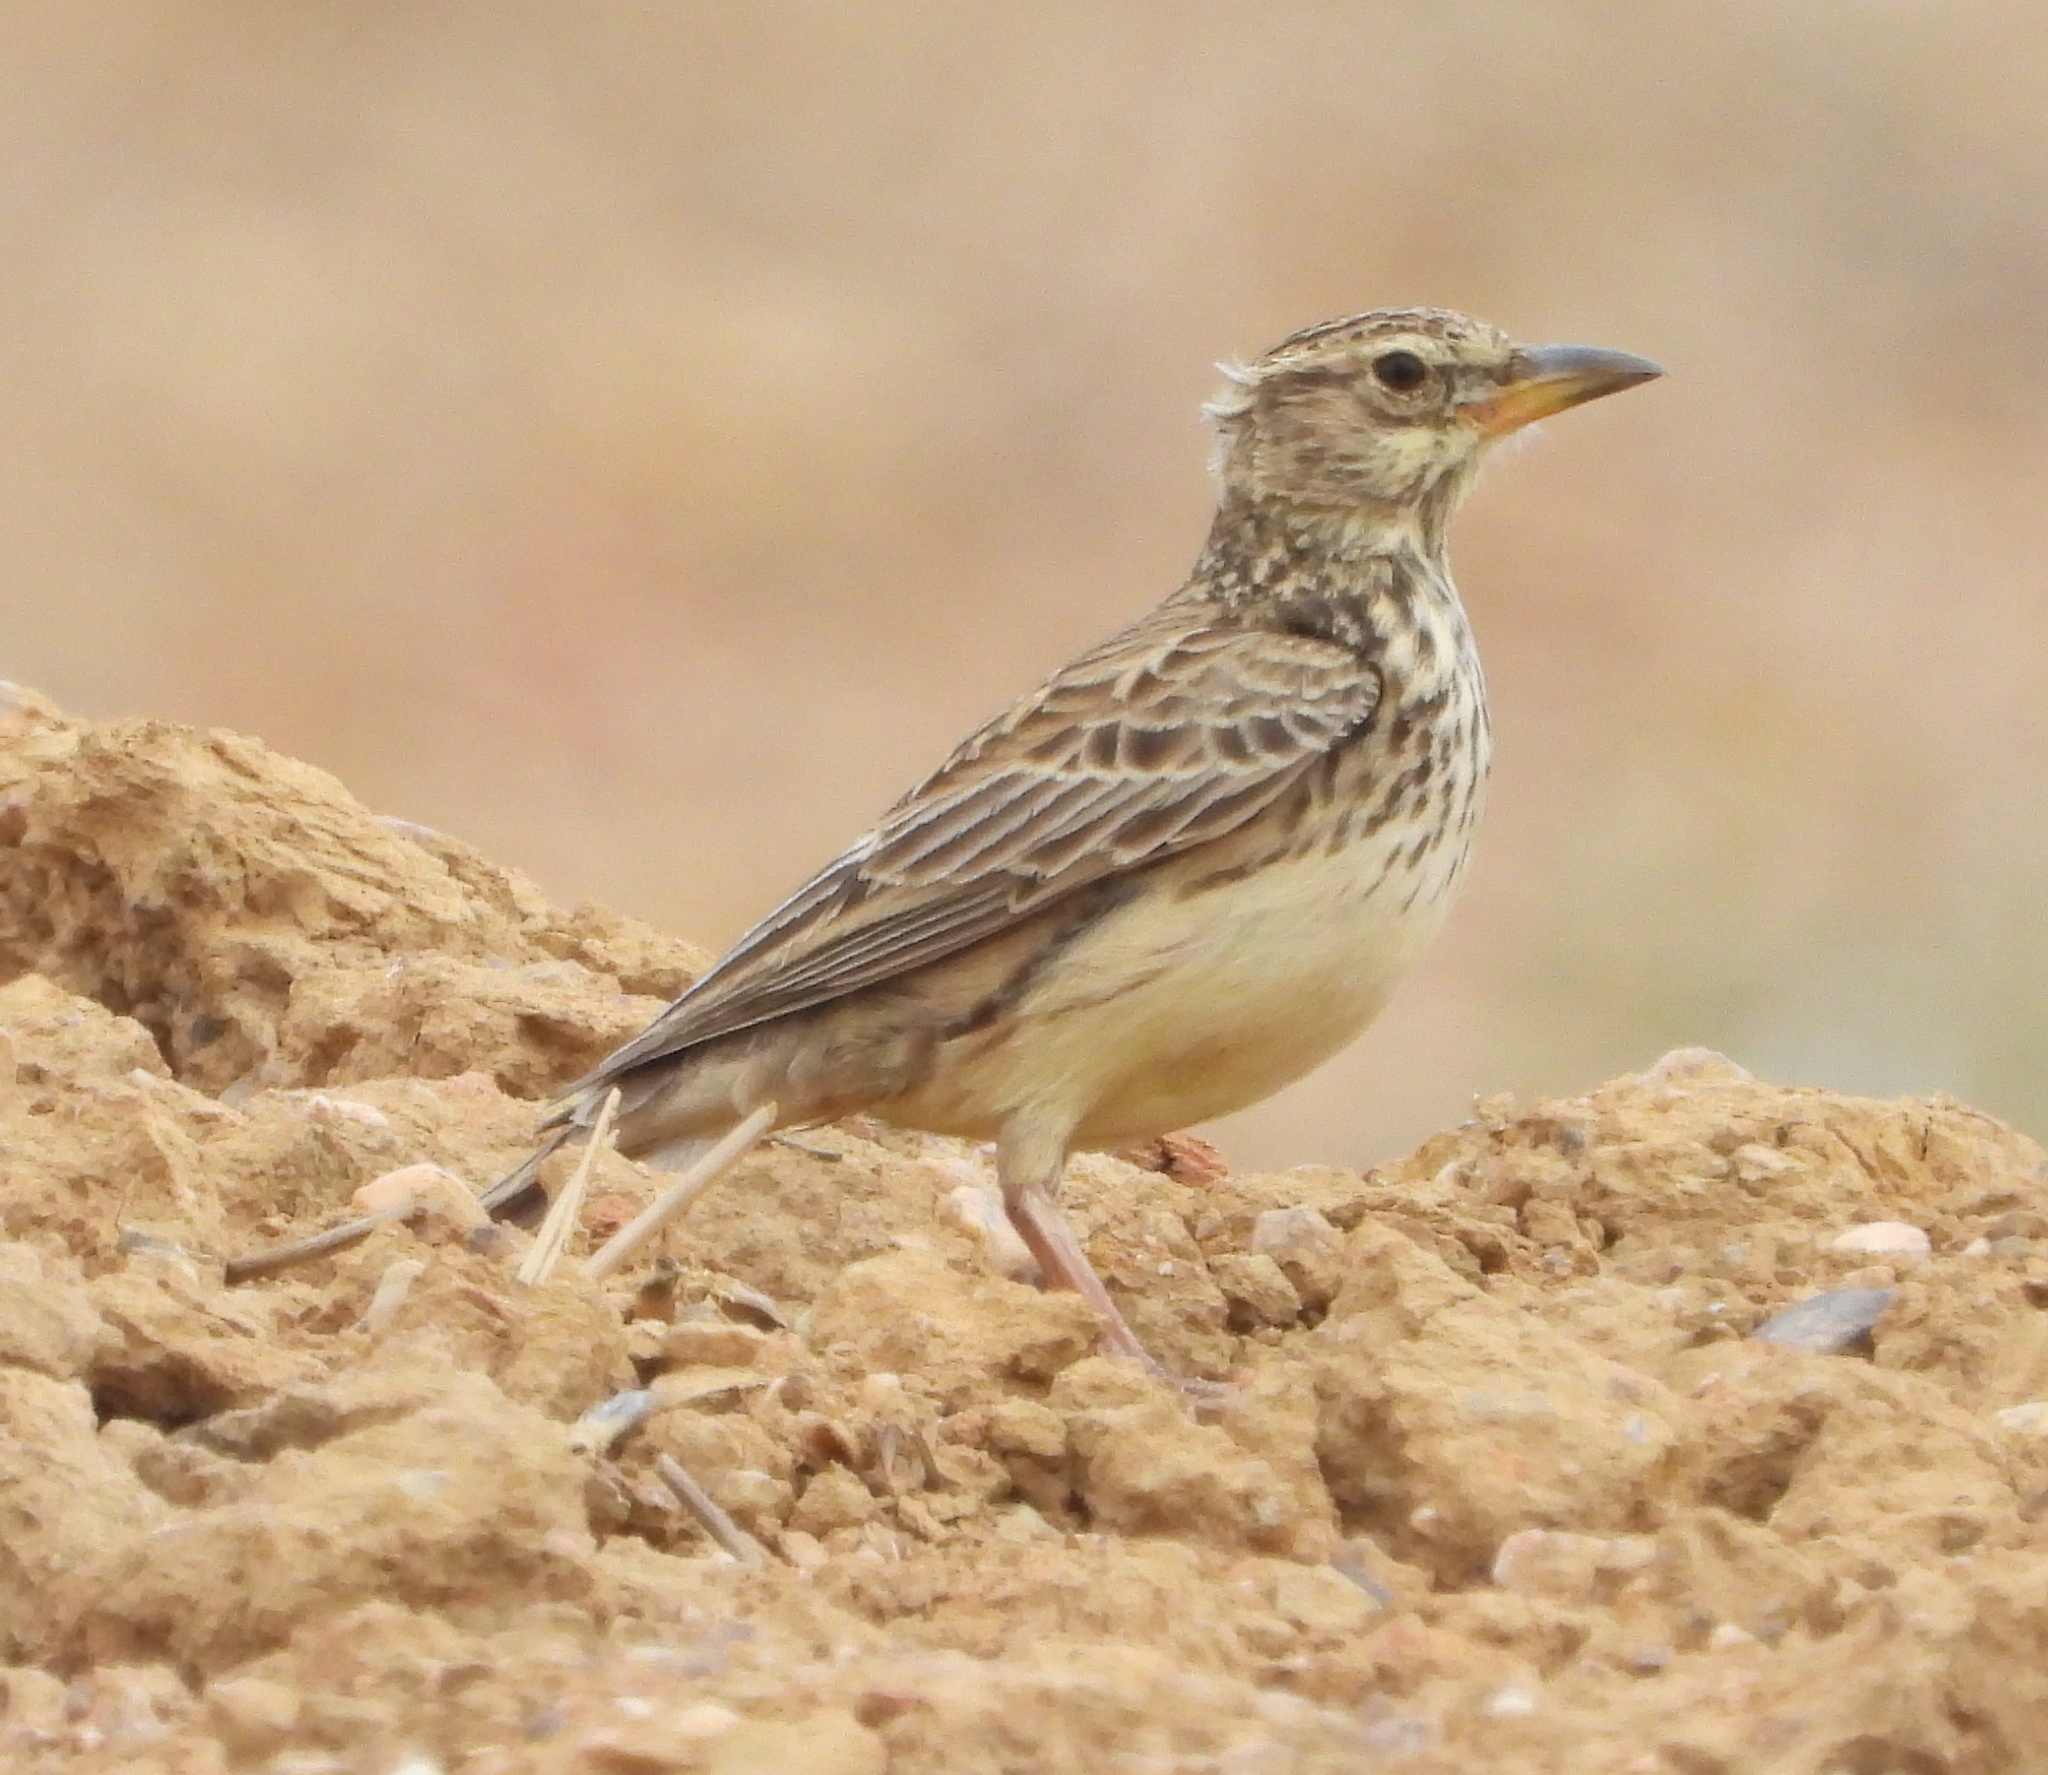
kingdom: Animalia
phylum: Chordata
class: Aves
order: Passeriformes
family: Alaudidae
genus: Galerida
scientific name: Galerida magnirostris
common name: Large-billed lark
